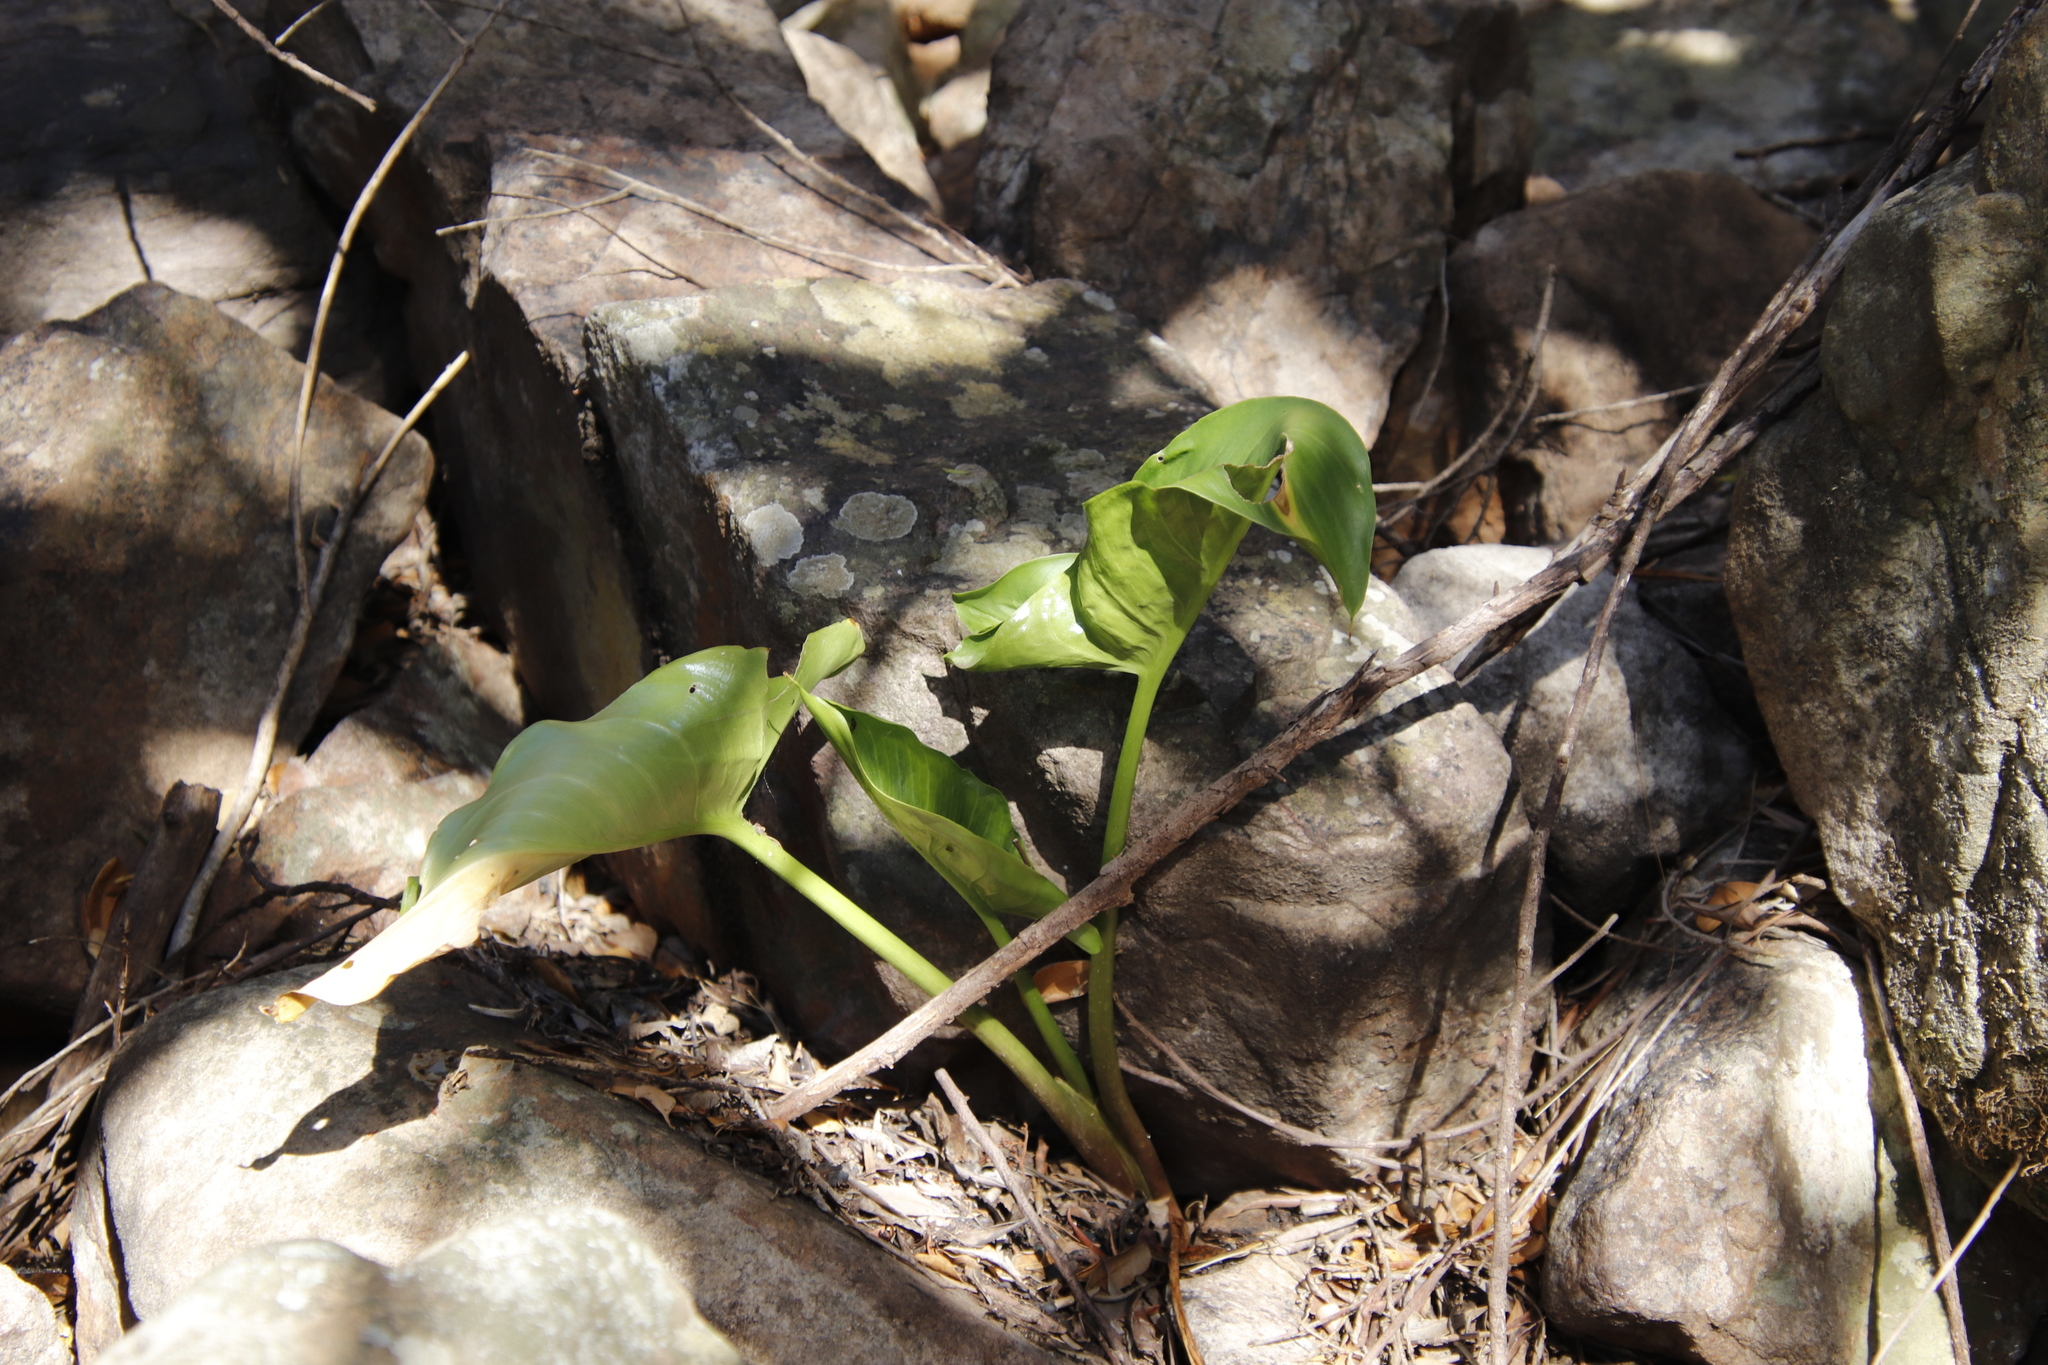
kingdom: Plantae
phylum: Tracheophyta
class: Liliopsida
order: Alismatales
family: Araceae
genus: Zantedeschia
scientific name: Zantedeschia aethiopica
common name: Altar-lily
